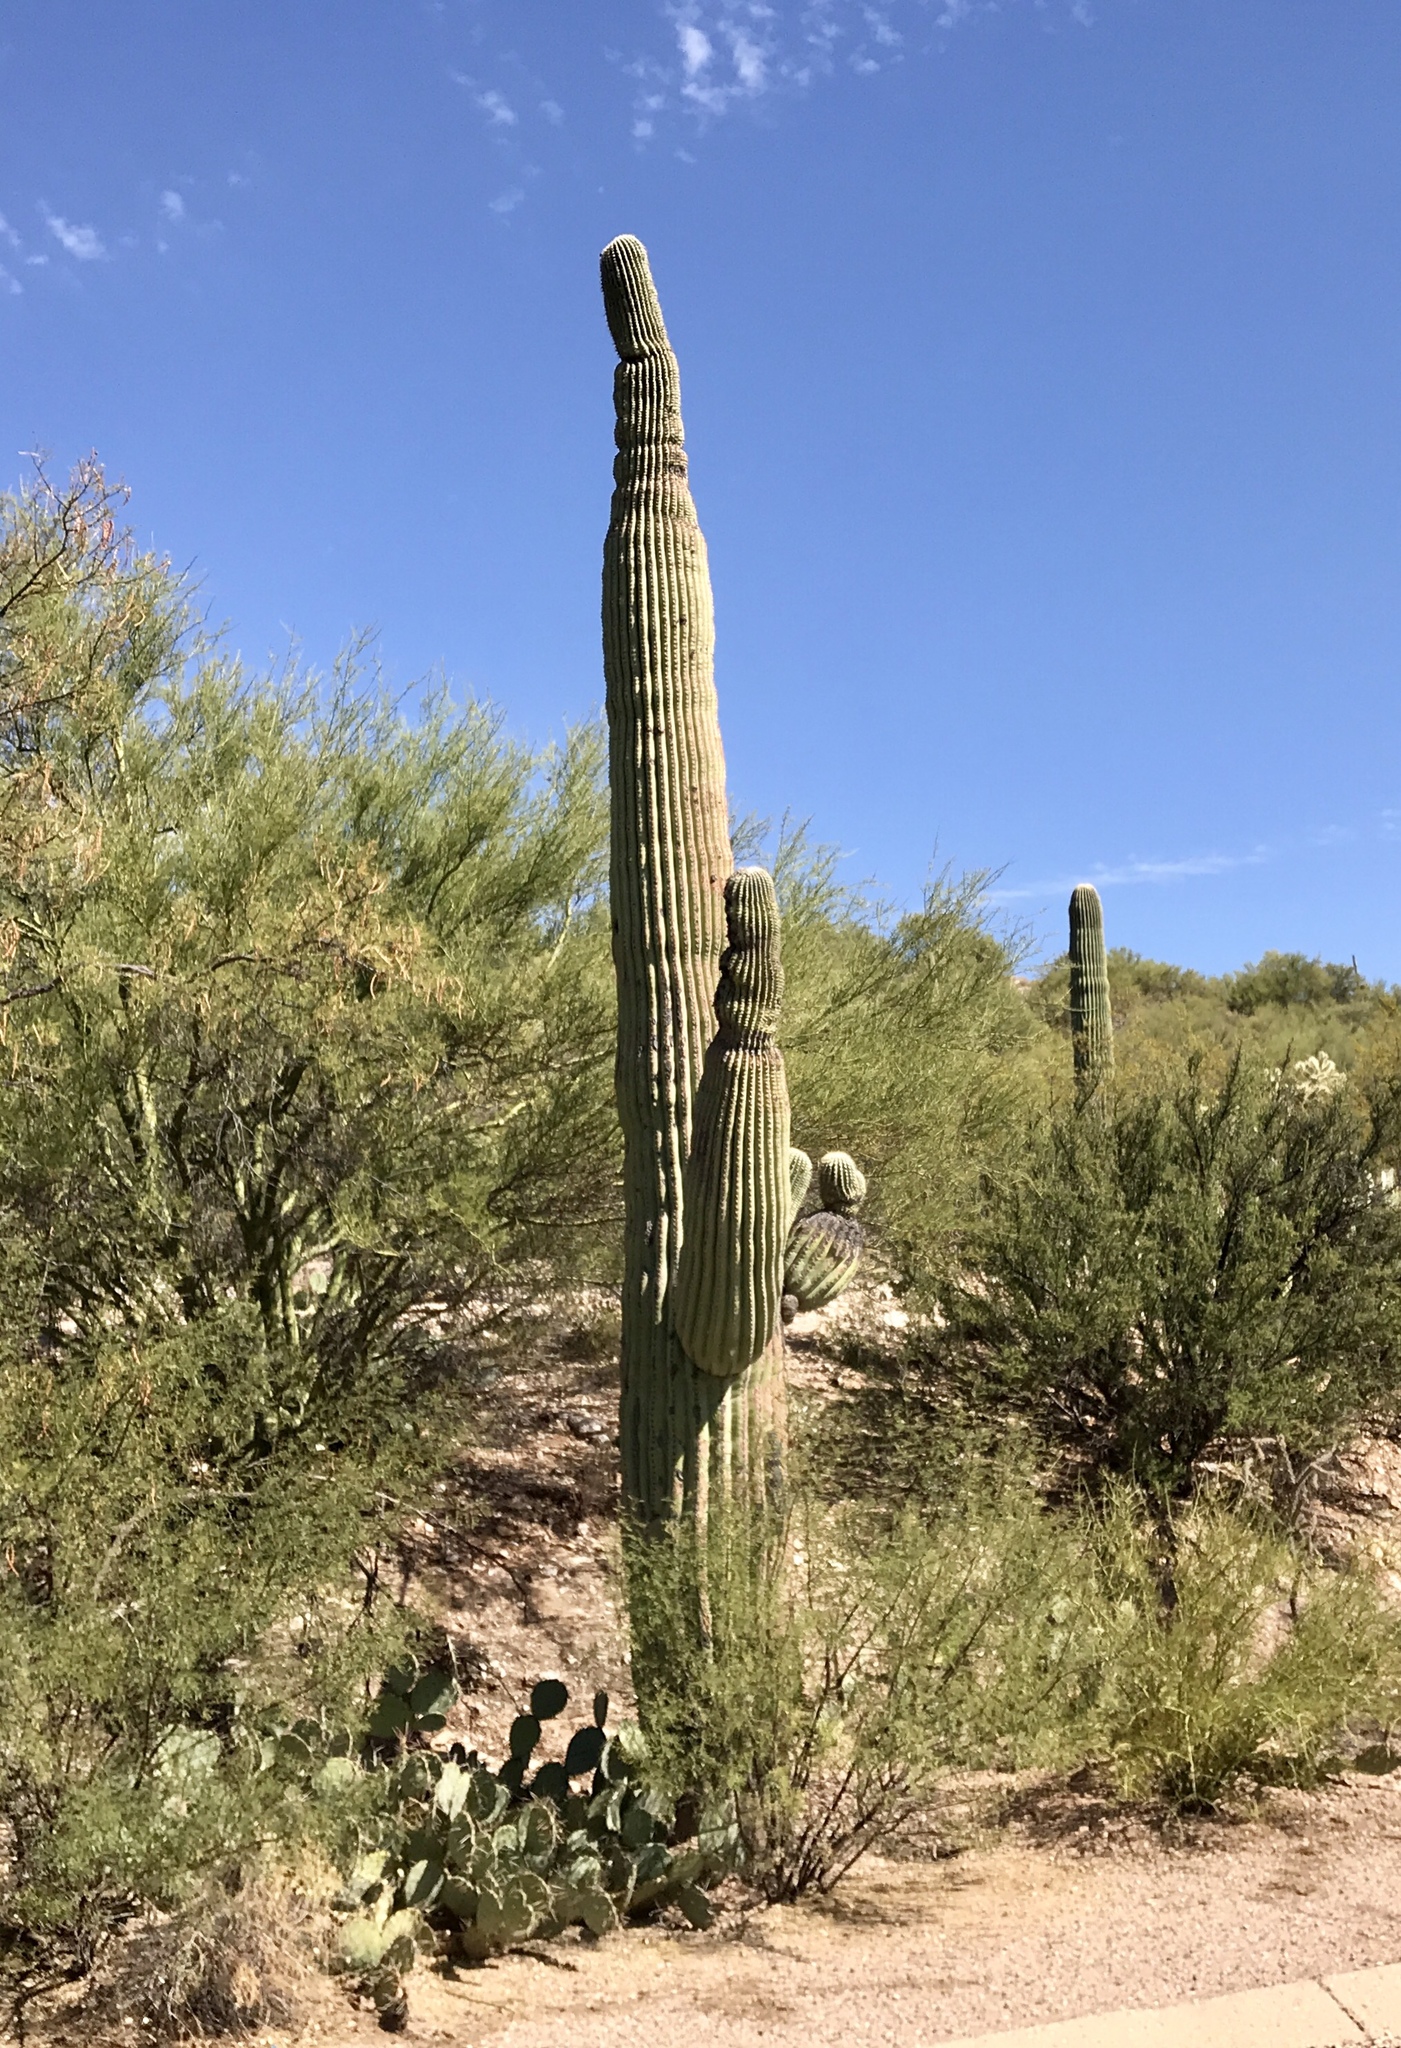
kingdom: Plantae
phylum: Tracheophyta
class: Magnoliopsida
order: Caryophyllales
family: Cactaceae
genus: Carnegiea
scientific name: Carnegiea gigantea
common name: Saguaro
